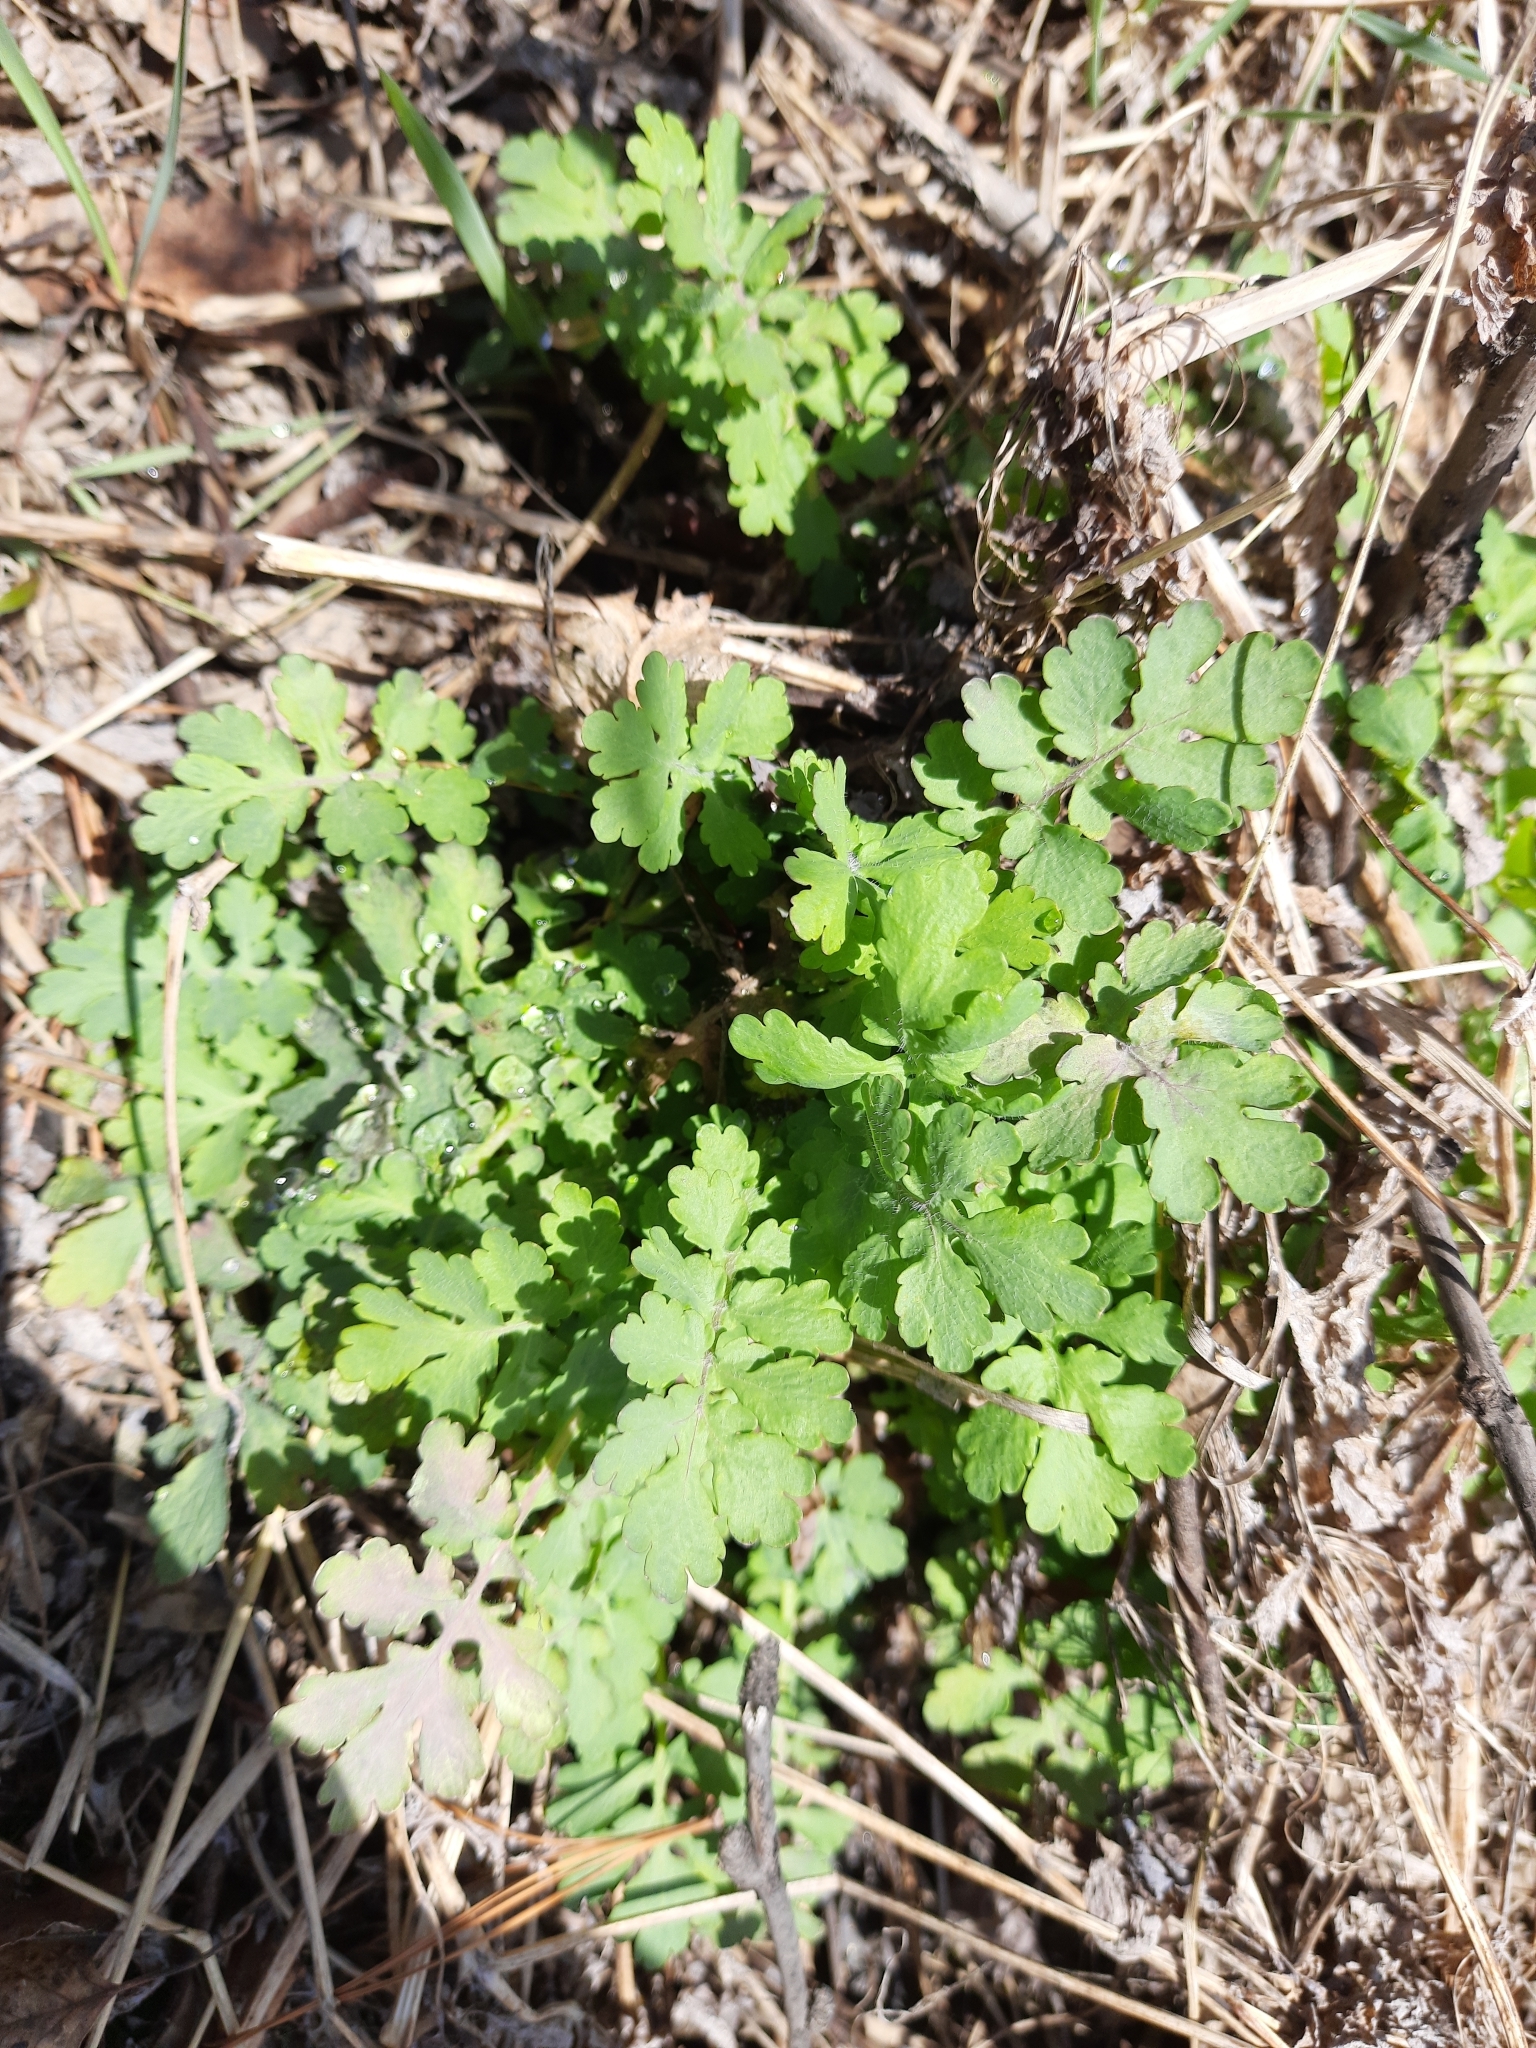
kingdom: Plantae
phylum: Tracheophyta
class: Magnoliopsida
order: Ranunculales
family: Papaveraceae
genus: Chelidonium
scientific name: Chelidonium majus
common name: Greater celandine
